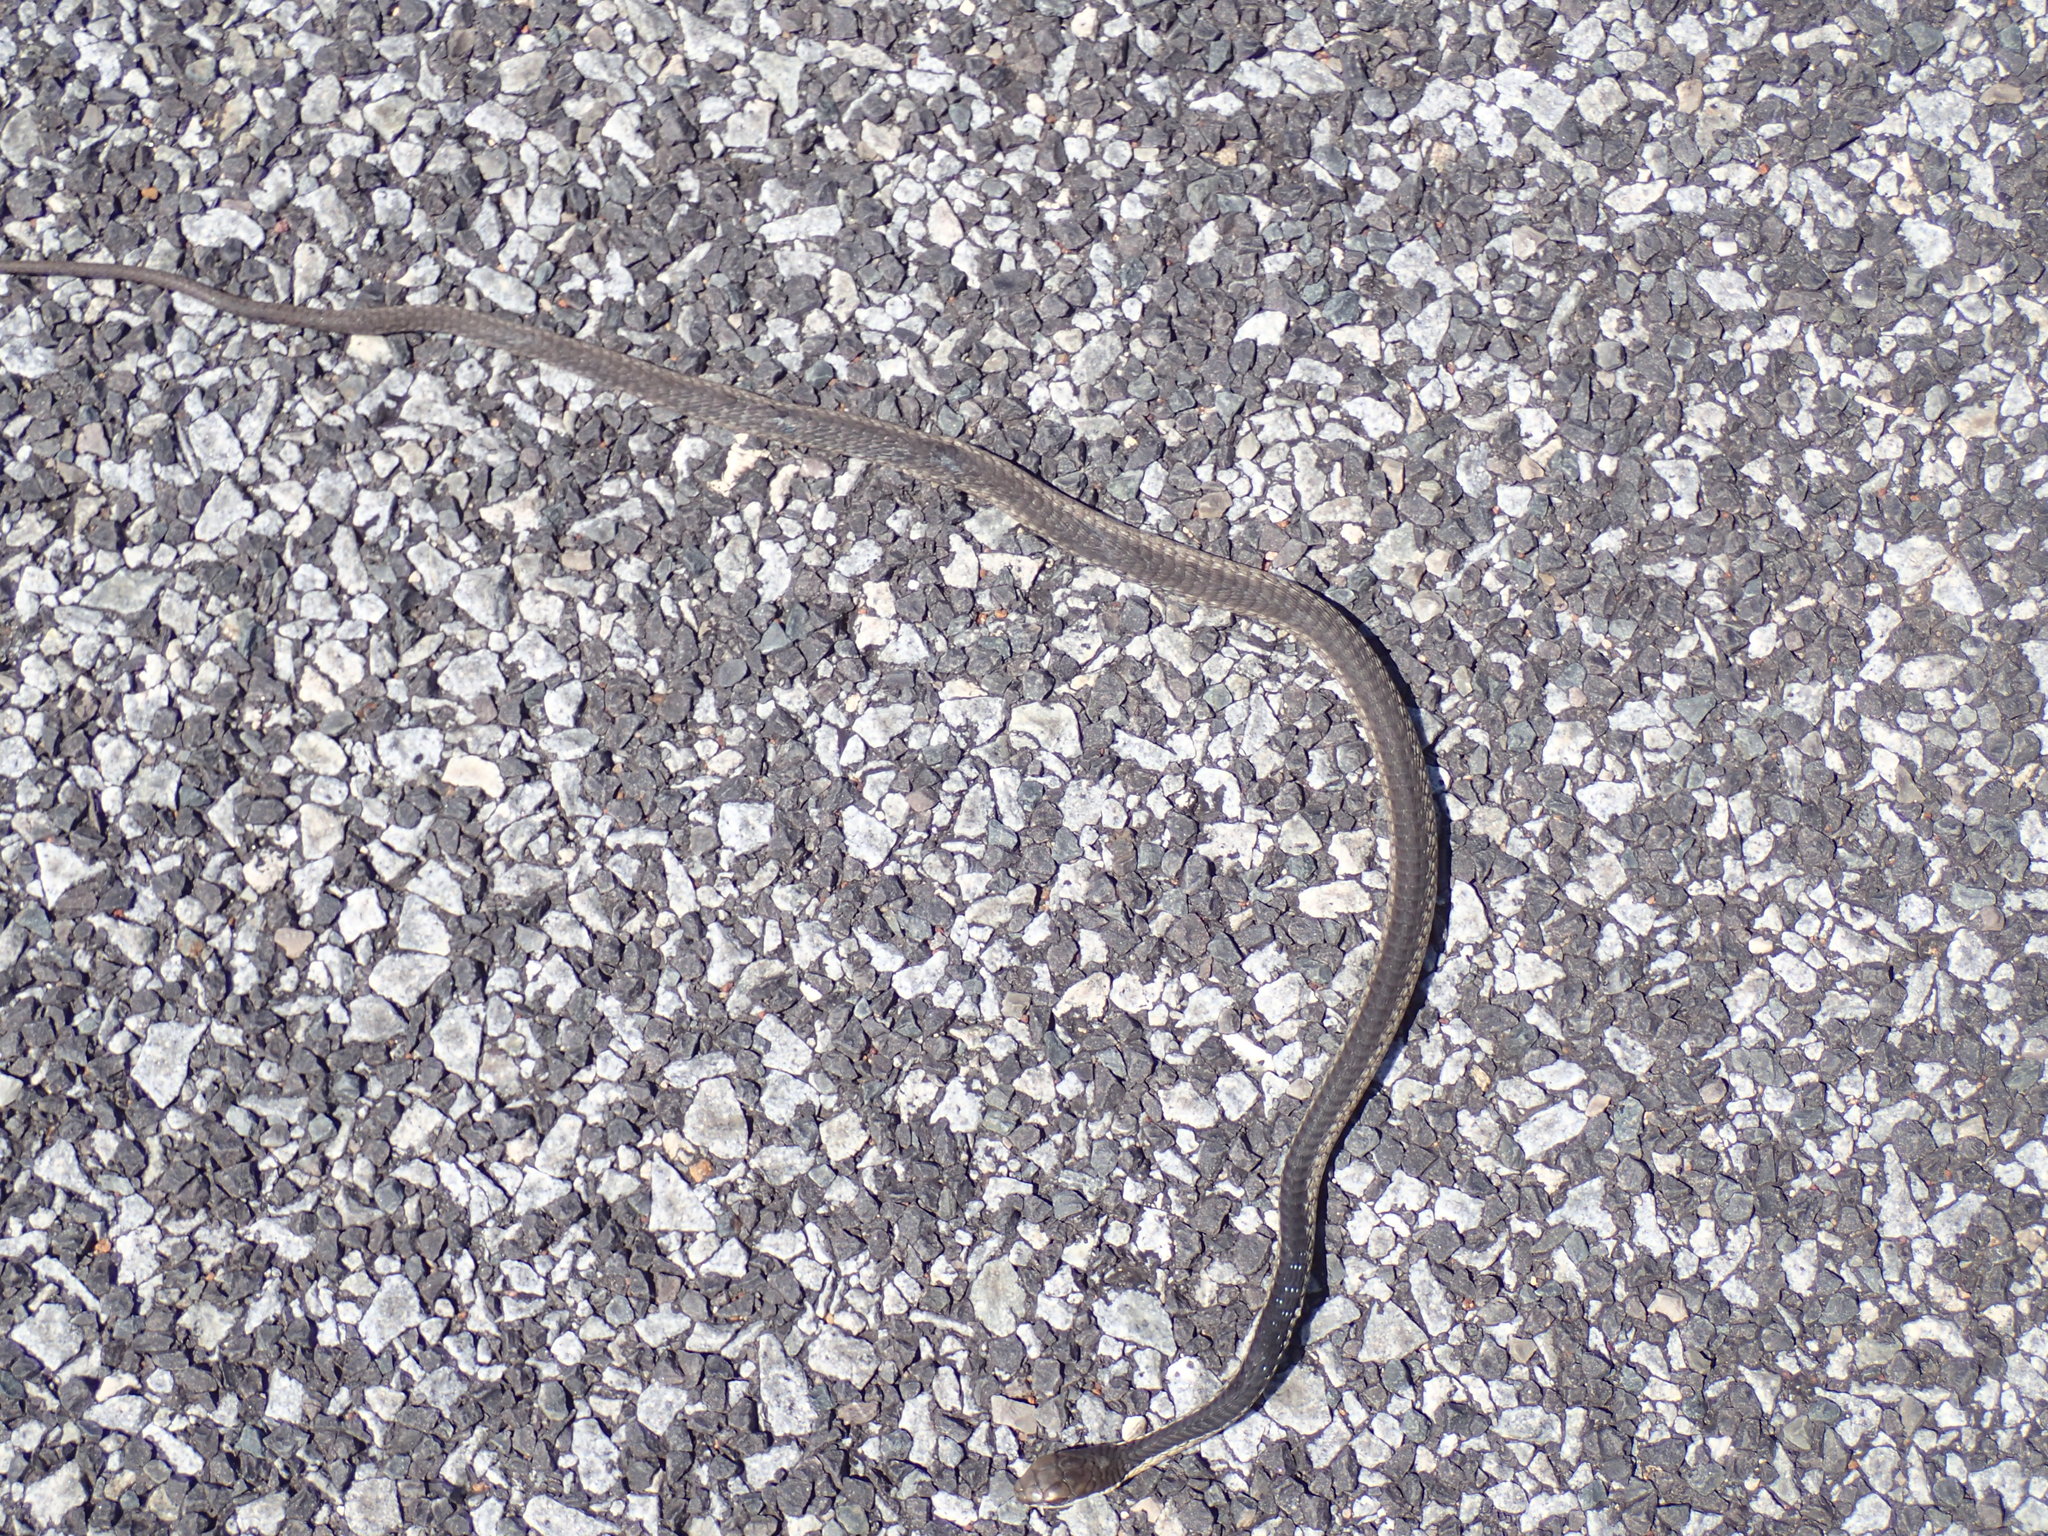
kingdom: Animalia
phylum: Chordata
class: Squamata
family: Colubridae
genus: Dispholidus
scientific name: Dispholidus typus
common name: Boomslang
